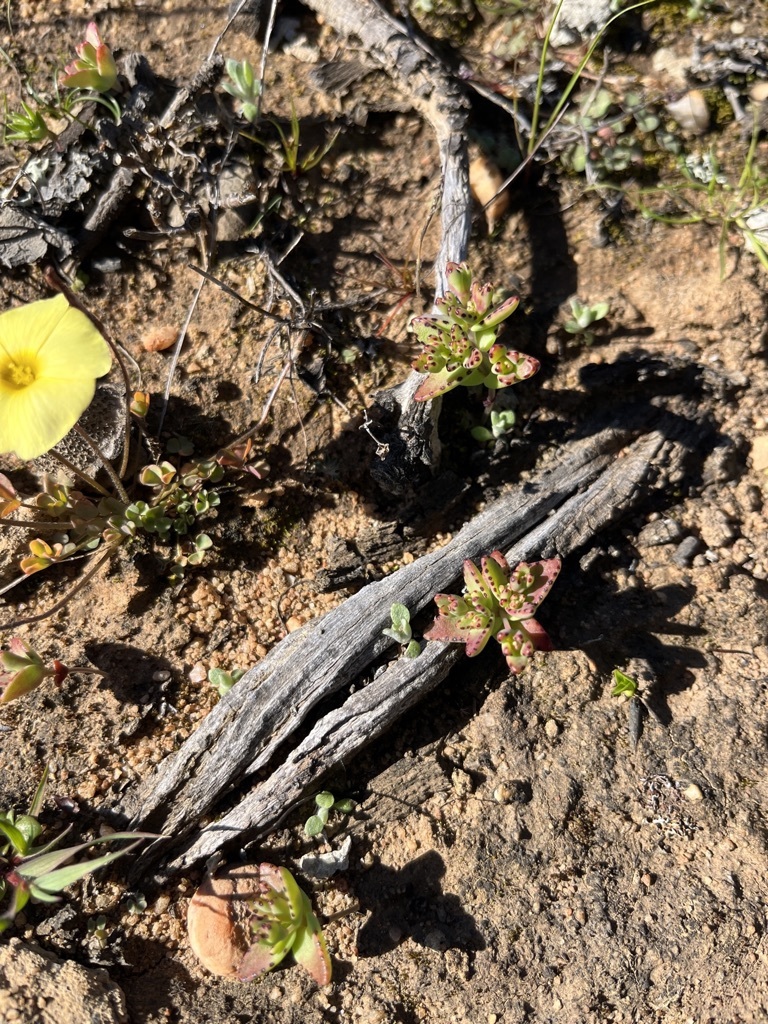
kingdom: Plantae
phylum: Tracheophyta
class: Magnoliopsida
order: Saxifragales
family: Crassulaceae
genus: Crassula
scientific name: Crassula dichotoma
